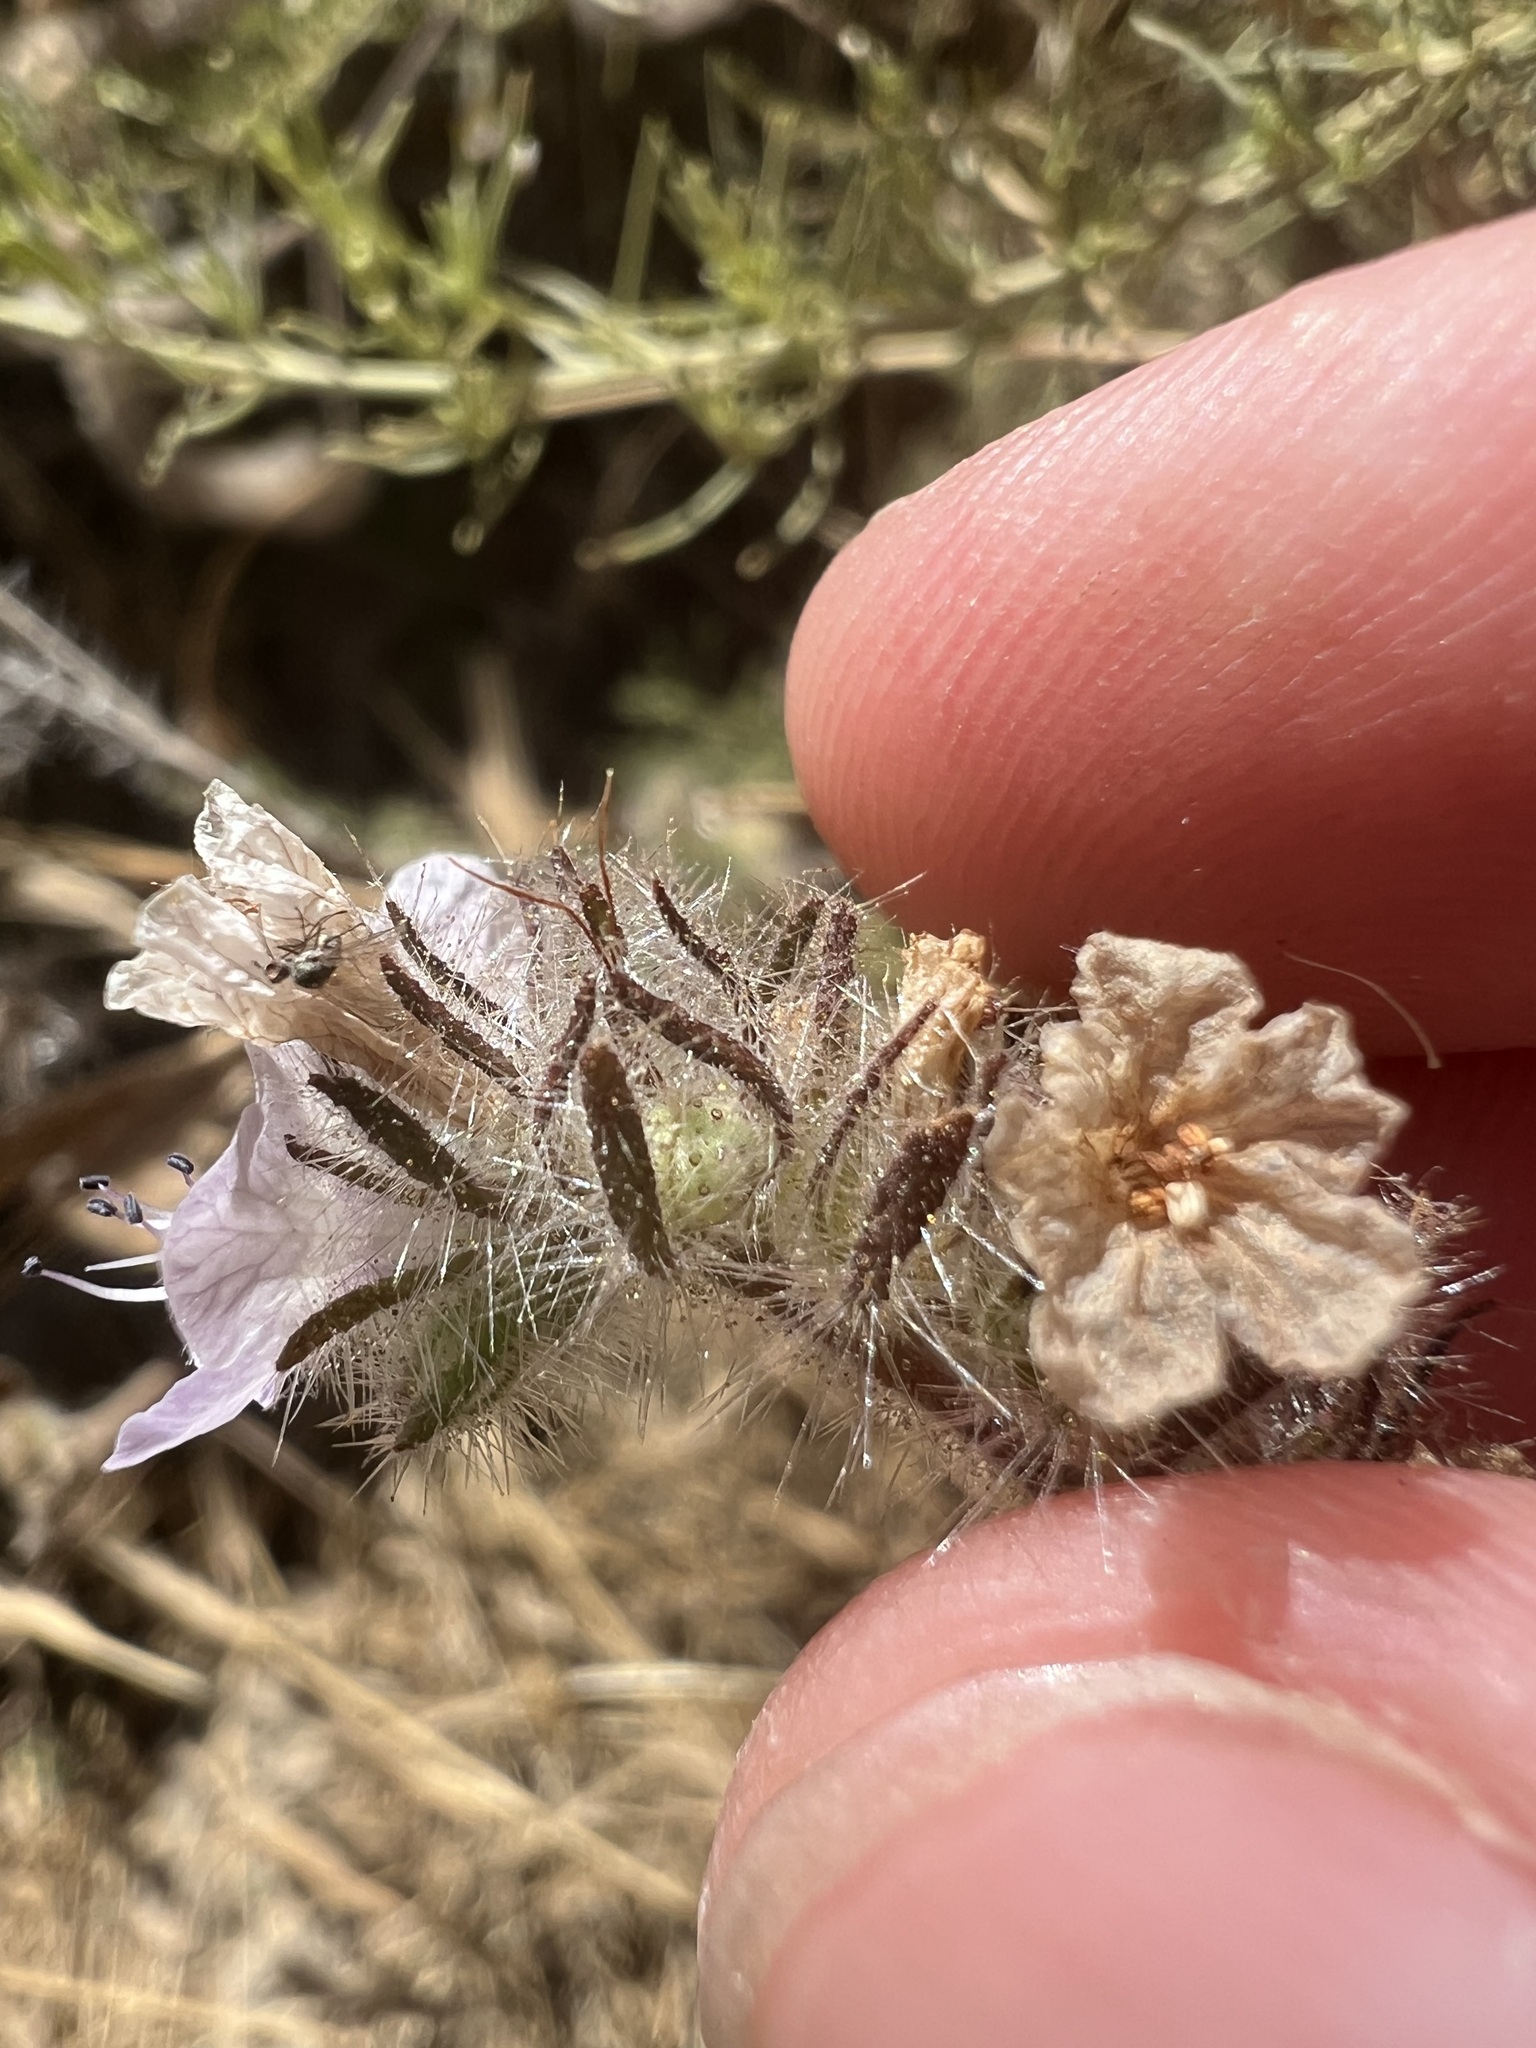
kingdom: Plantae
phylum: Tracheophyta
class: Magnoliopsida
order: Boraginales
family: Hydrophyllaceae
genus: Phacelia
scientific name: Phacelia cicutaria
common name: Caterpillar phacelia
